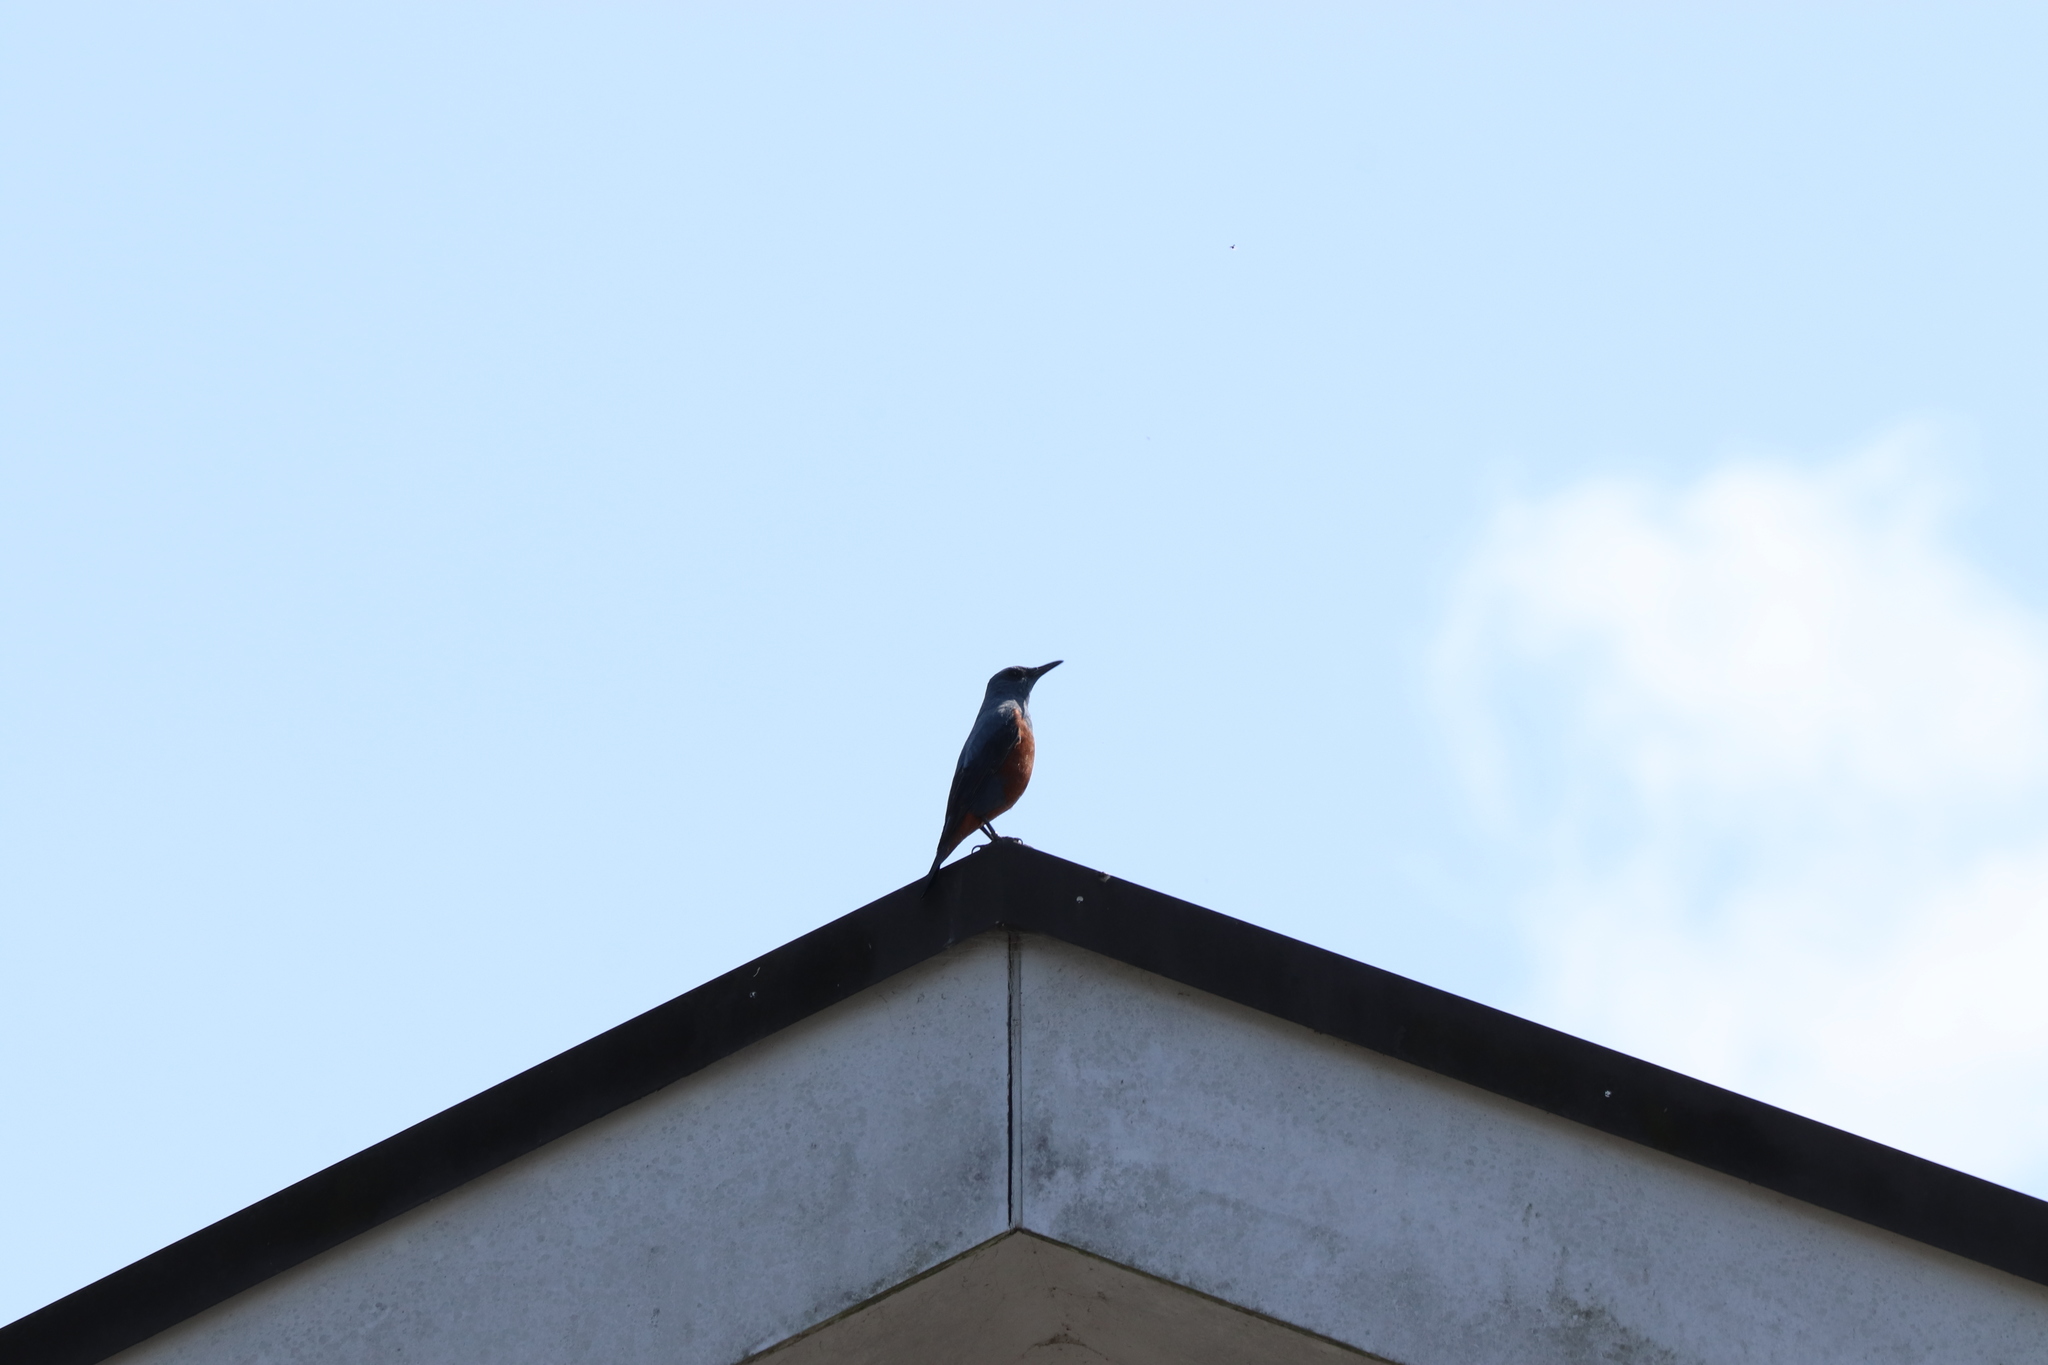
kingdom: Animalia
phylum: Chordata
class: Aves
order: Passeriformes
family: Muscicapidae
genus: Monticola
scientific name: Monticola solitarius
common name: Blue rock thrush
